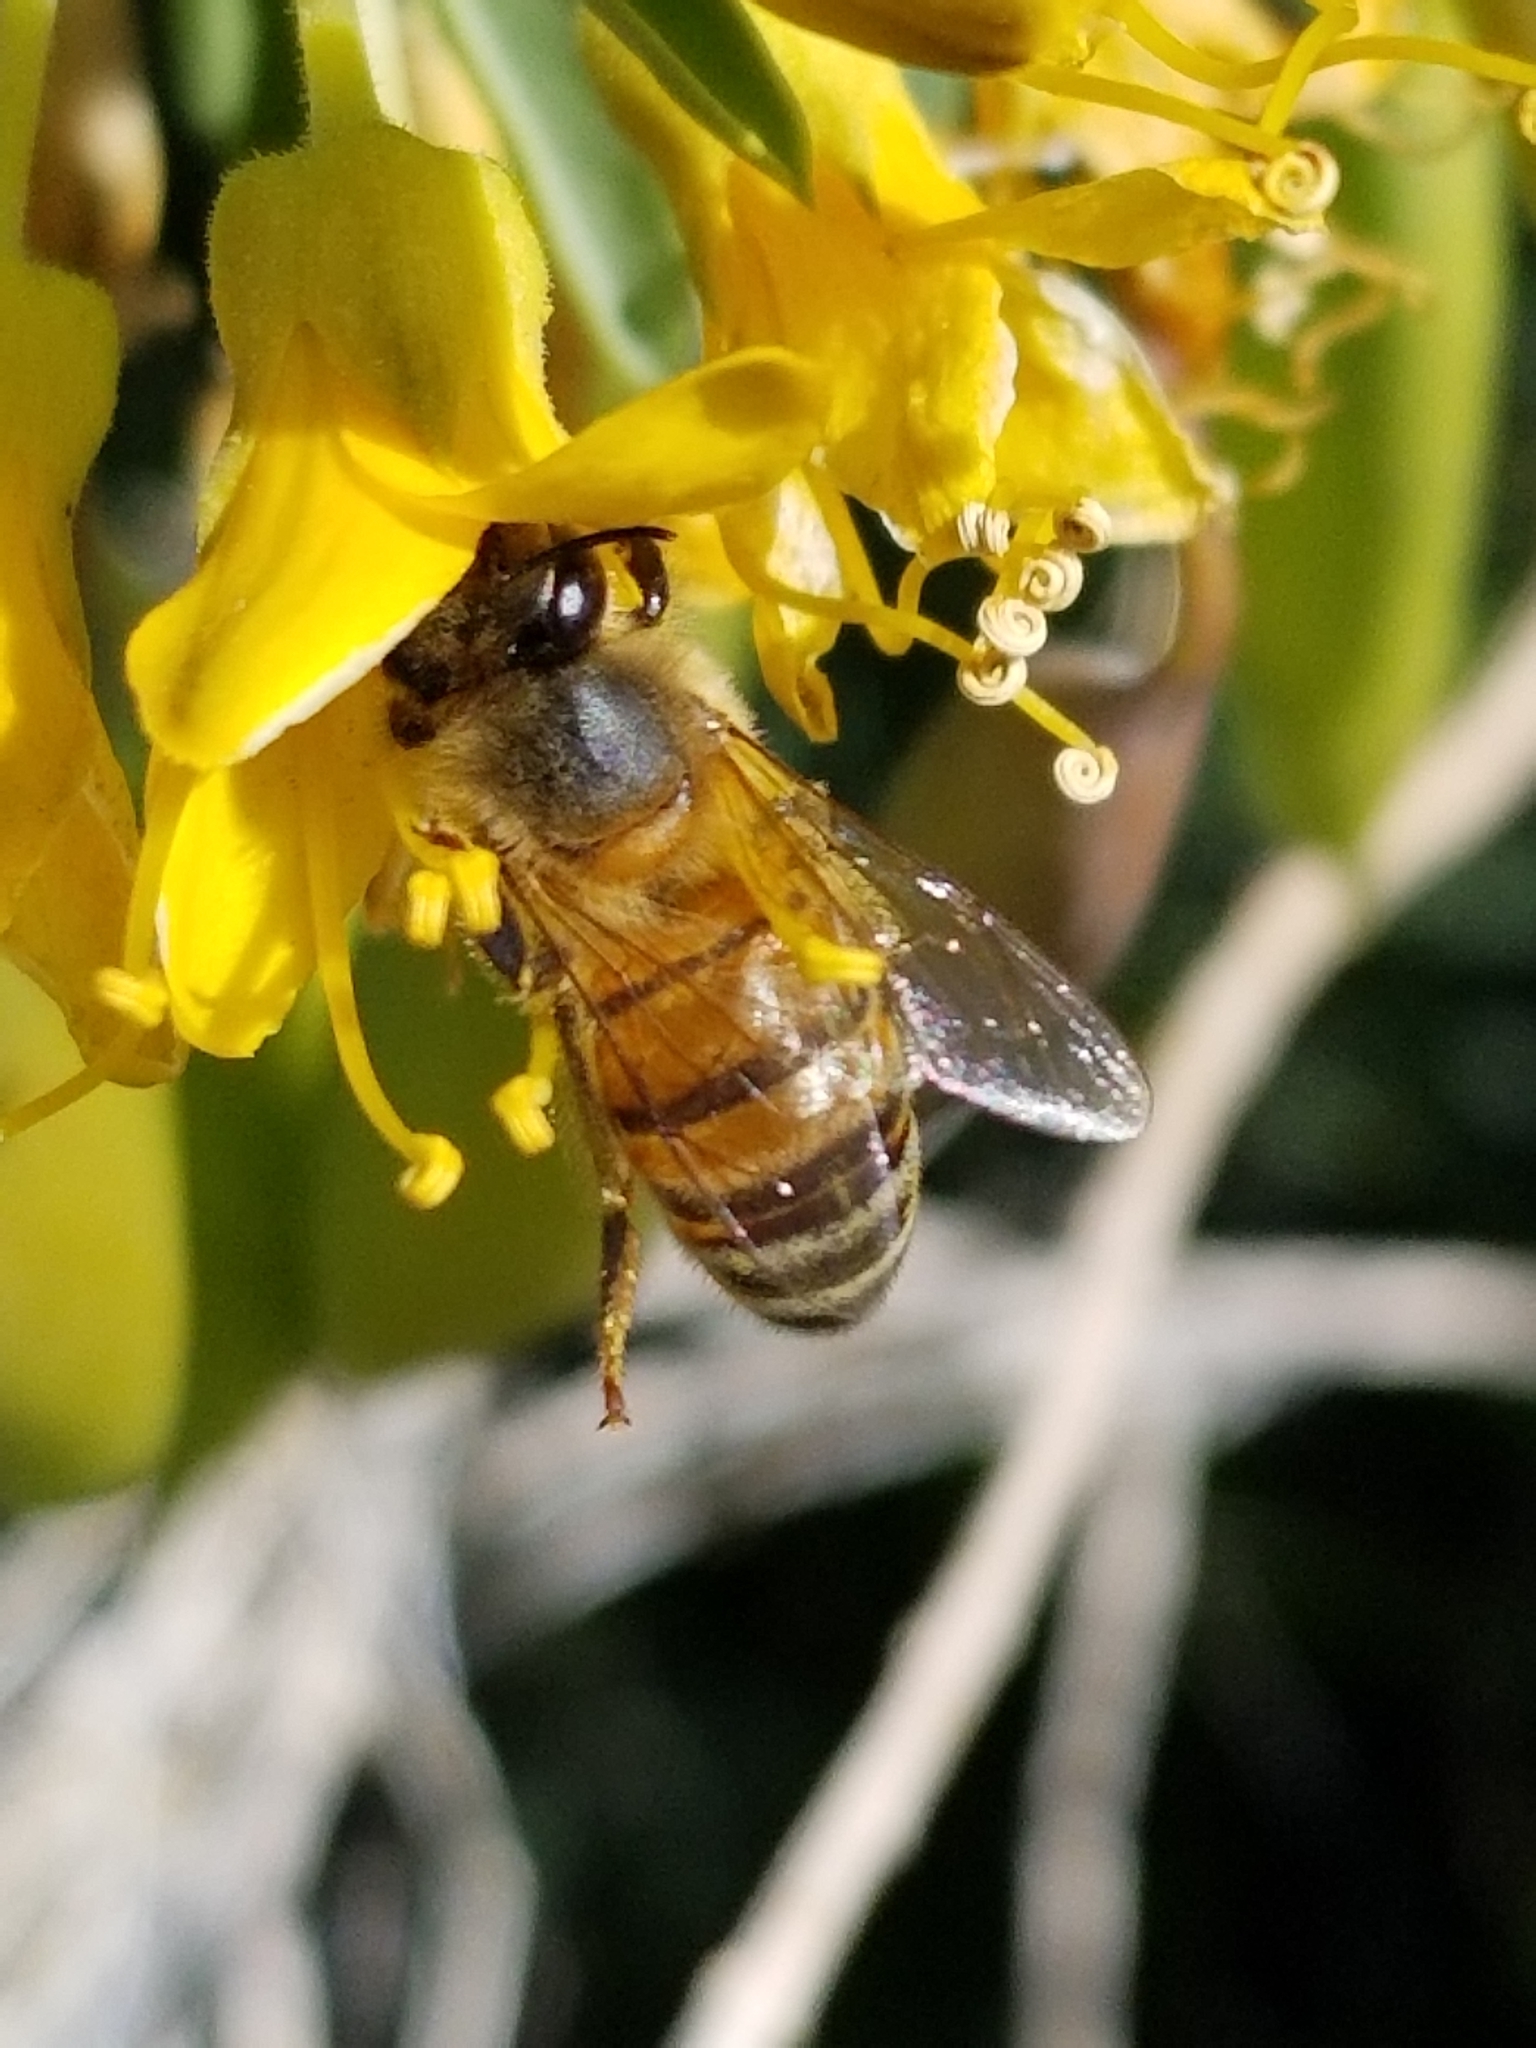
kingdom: Animalia
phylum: Arthropoda
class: Insecta
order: Hymenoptera
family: Apidae
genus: Apis
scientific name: Apis mellifera
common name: Honey bee
